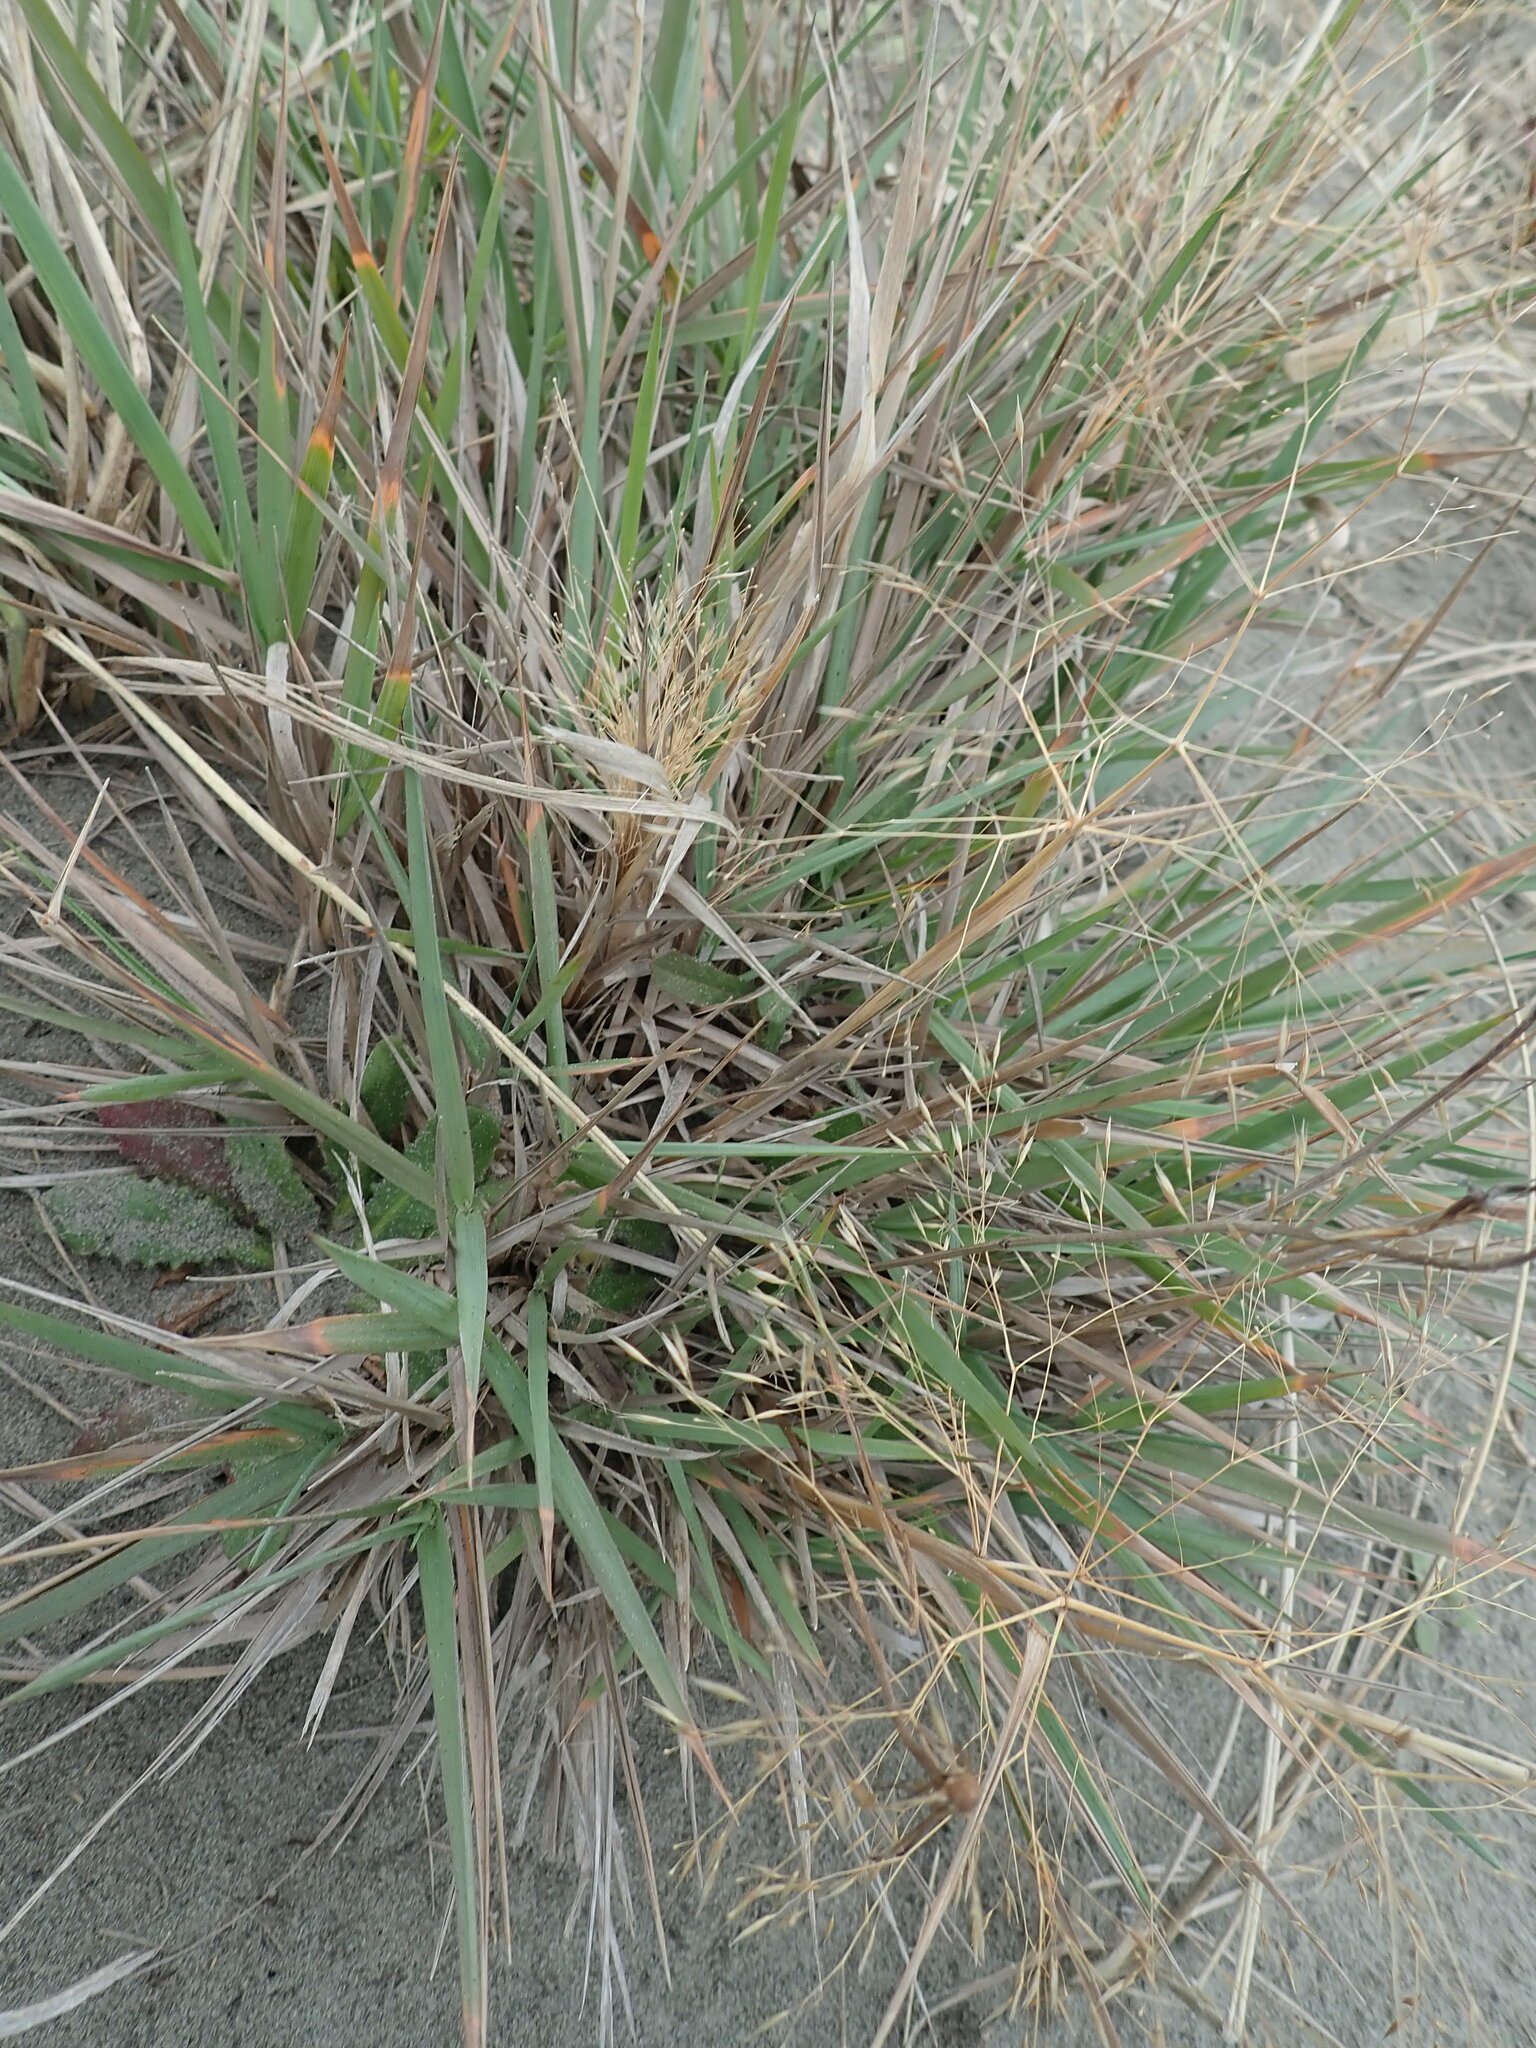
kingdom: Plantae
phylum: Tracheophyta
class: Liliopsida
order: Poales
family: Poaceae
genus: Lachnagrostis
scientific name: Lachnagrostis billardierei
